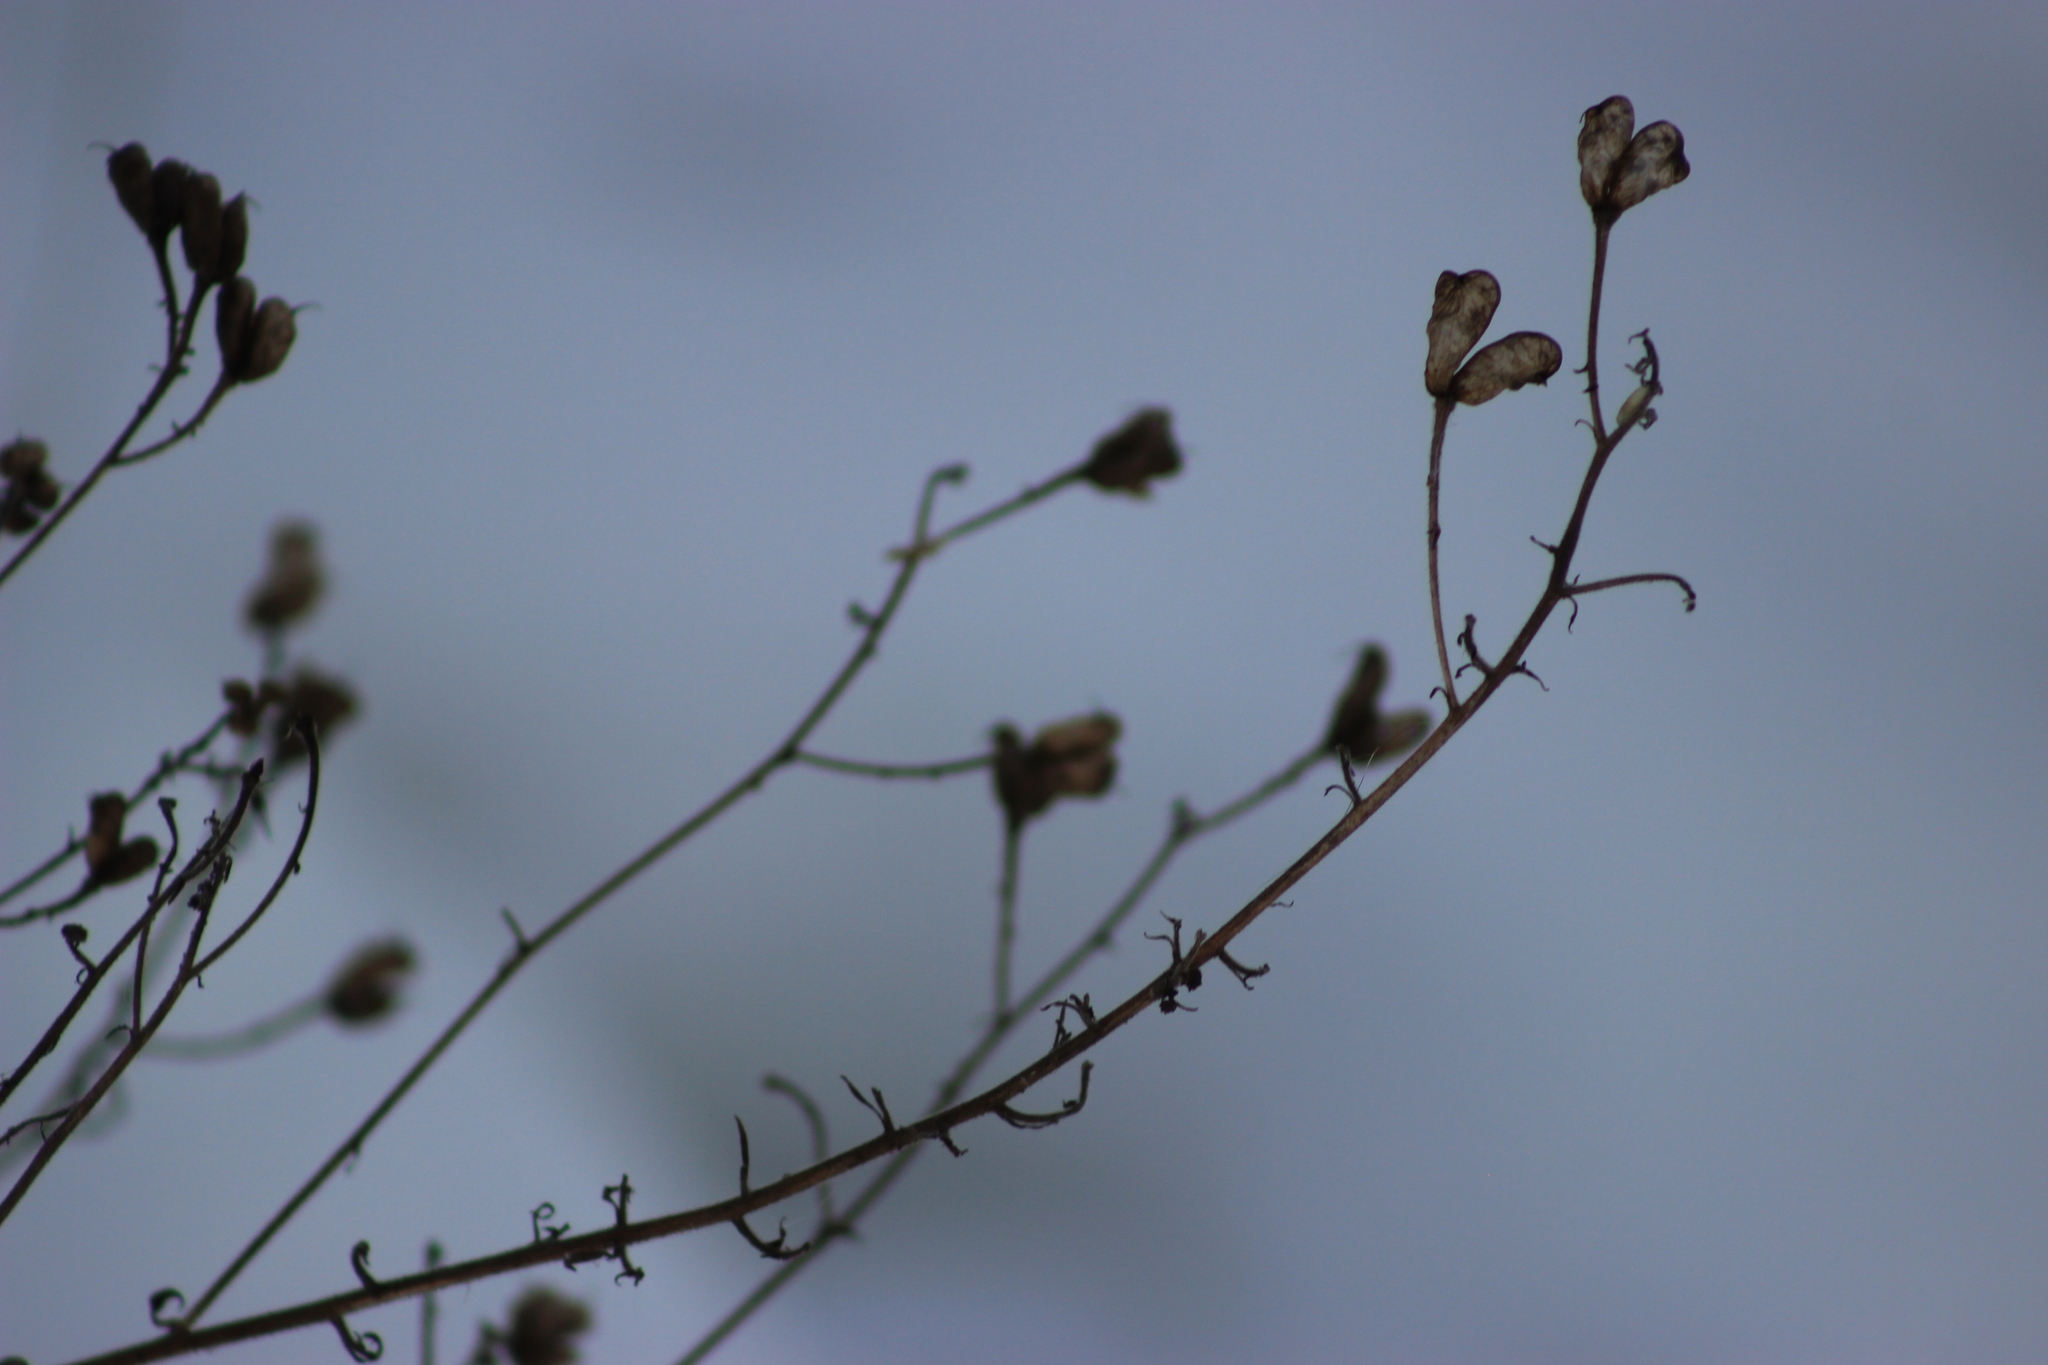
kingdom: Plantae
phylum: Tracheophyta
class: Magnoliopsida
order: Ranunculales
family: Ranunculaceae
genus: Aconitum
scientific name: Aconitum septentrionale
